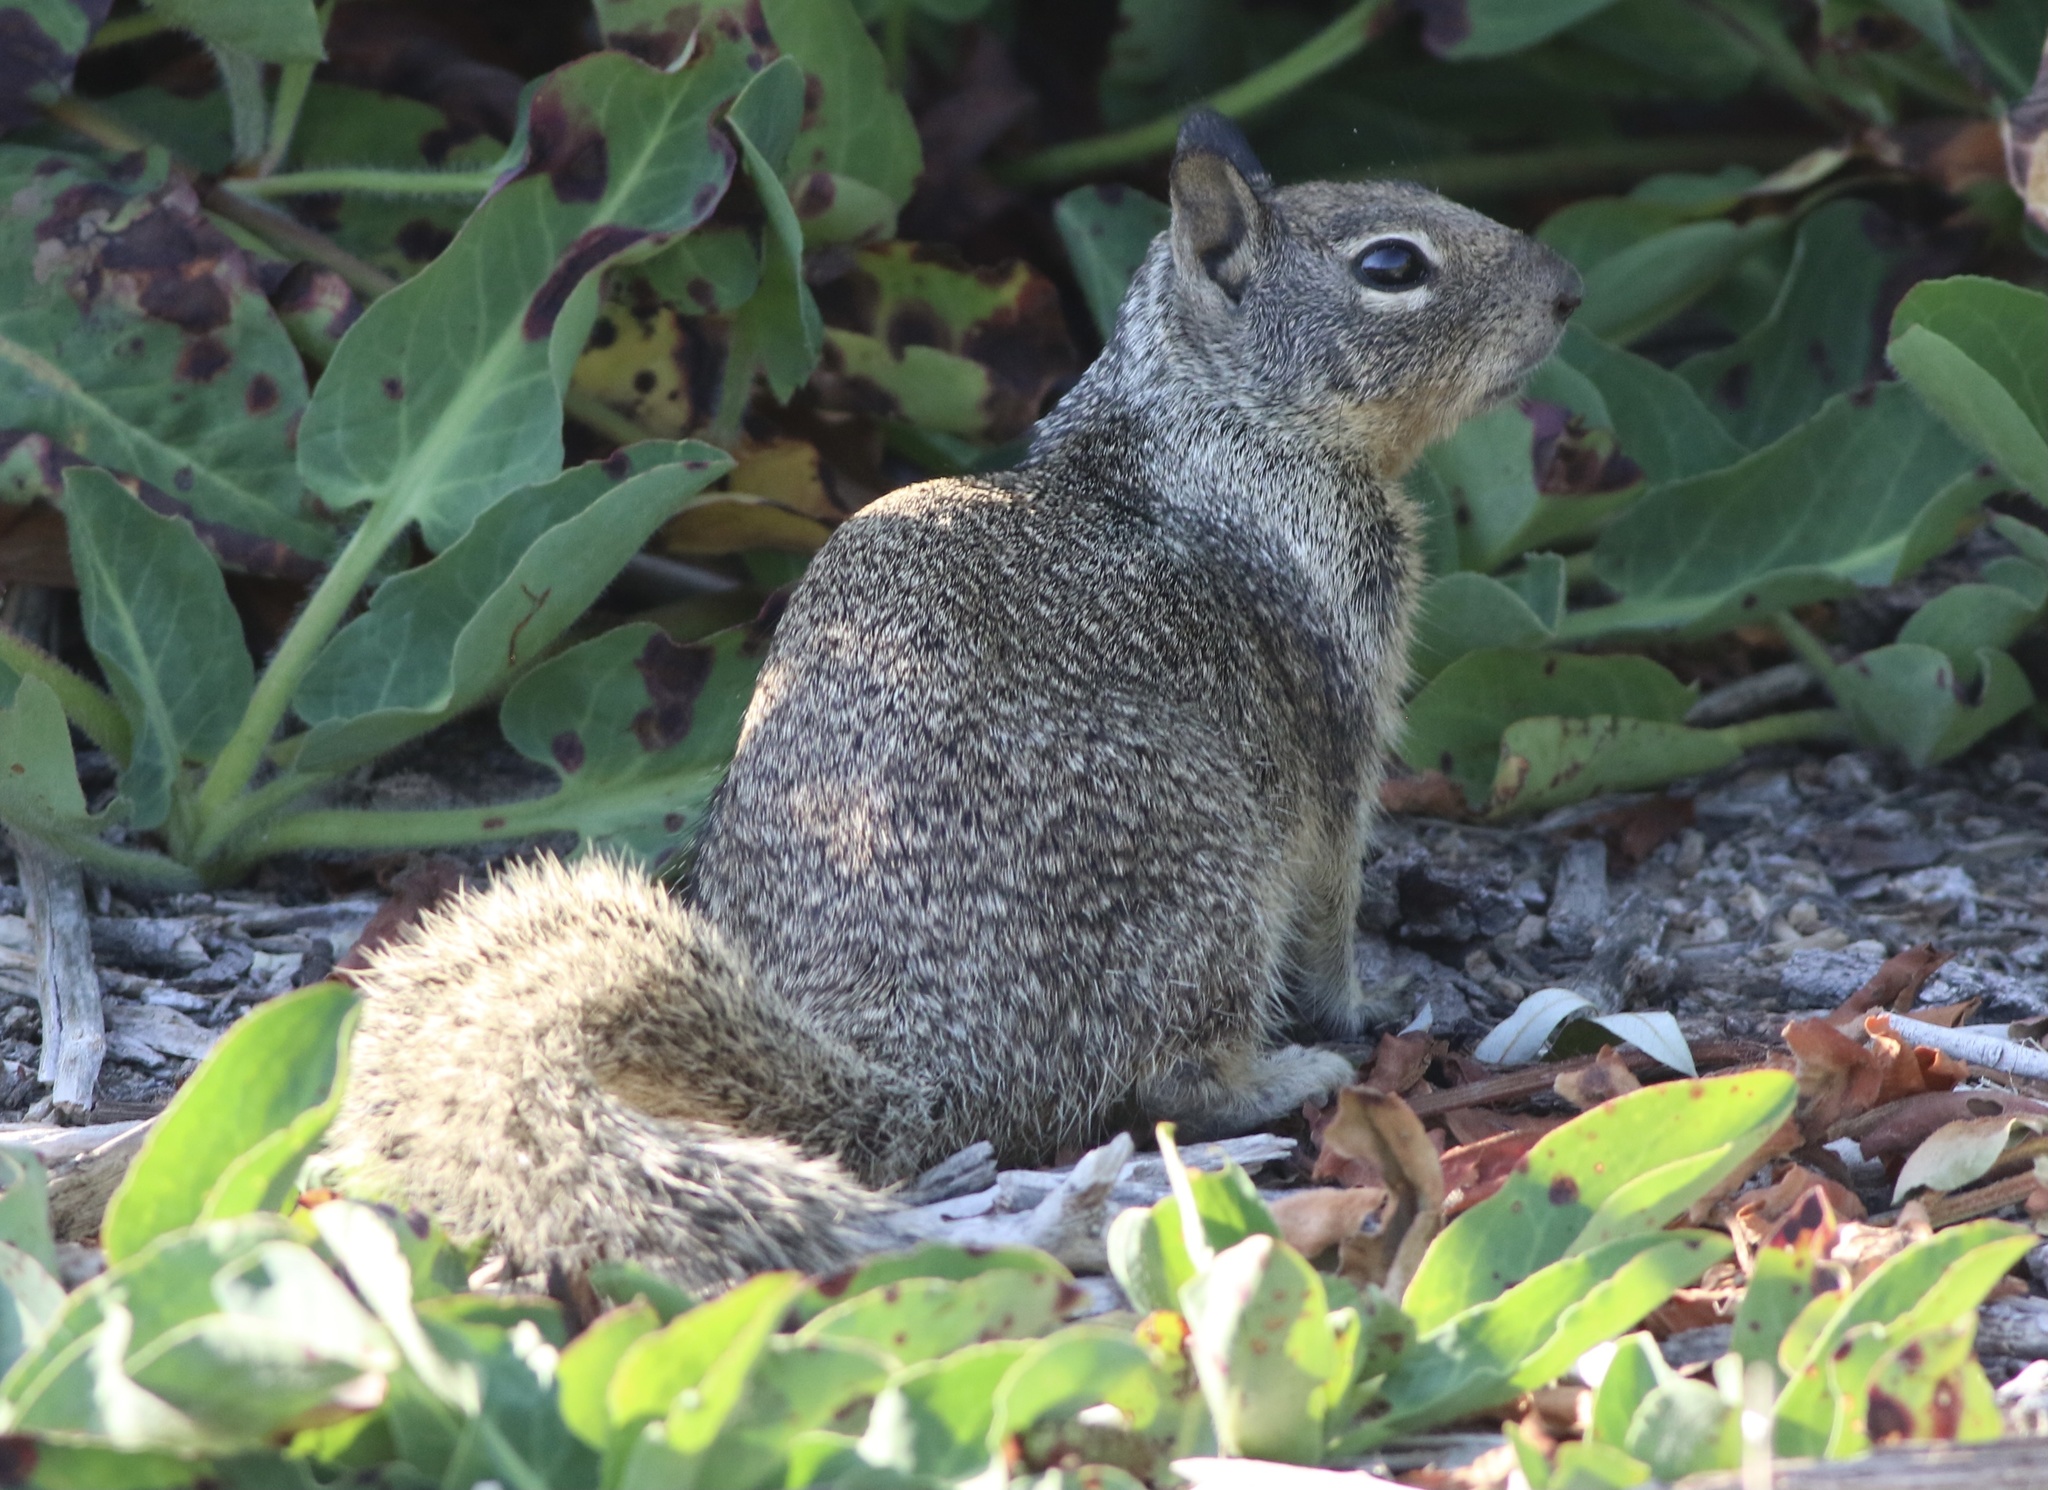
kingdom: Animalia
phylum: Chordata
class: Mammalia
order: Rodentia
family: Sciuridae
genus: Otospermophilus
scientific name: Otospermophilus beecheyi
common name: California ground squirrel
